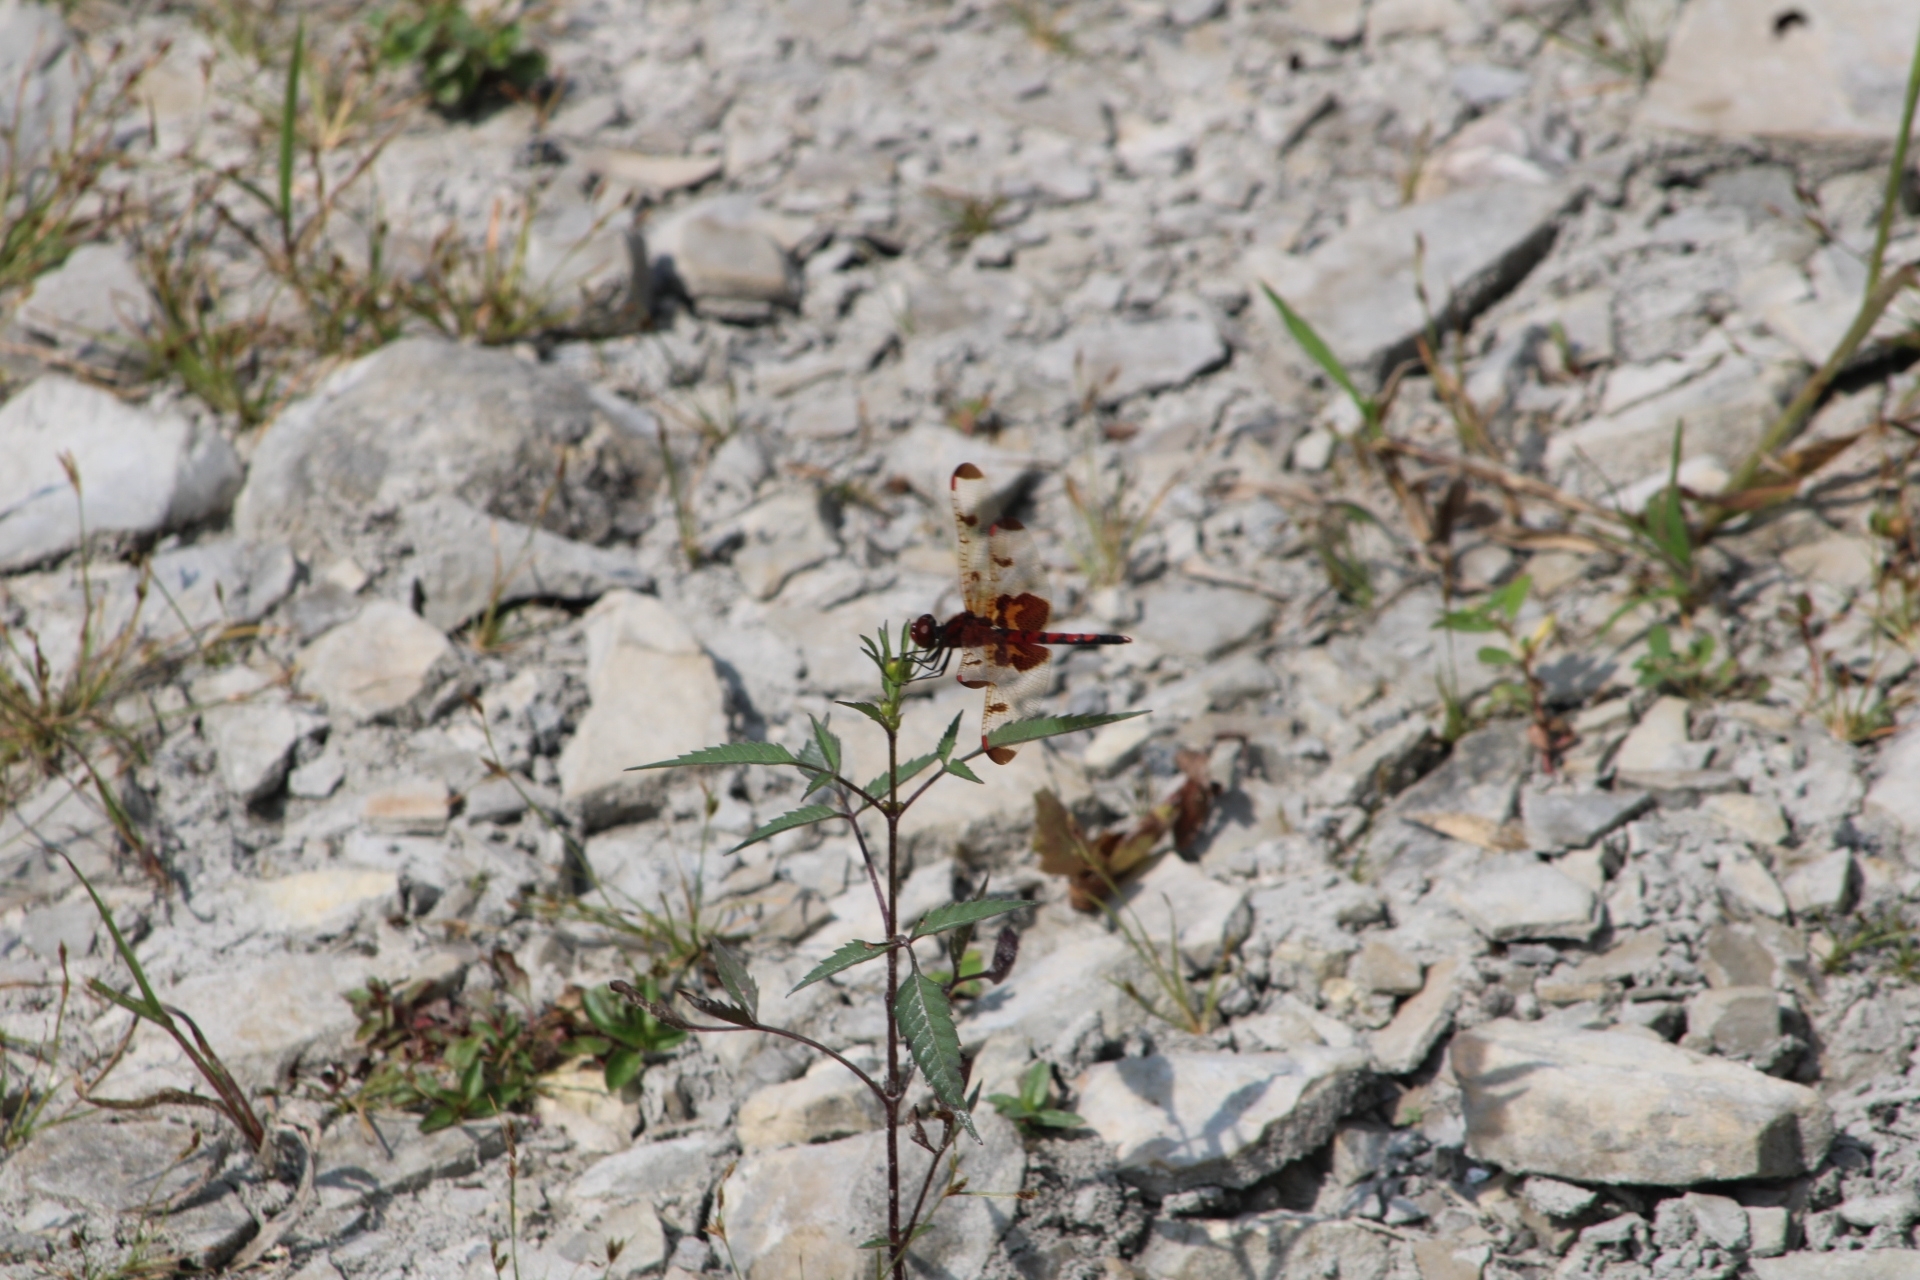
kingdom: Animalia
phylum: Arthropoda
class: Insecta
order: Odonata
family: Libellulidae
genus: Celithemis
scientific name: Celithemis elisa
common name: Calico pennant
